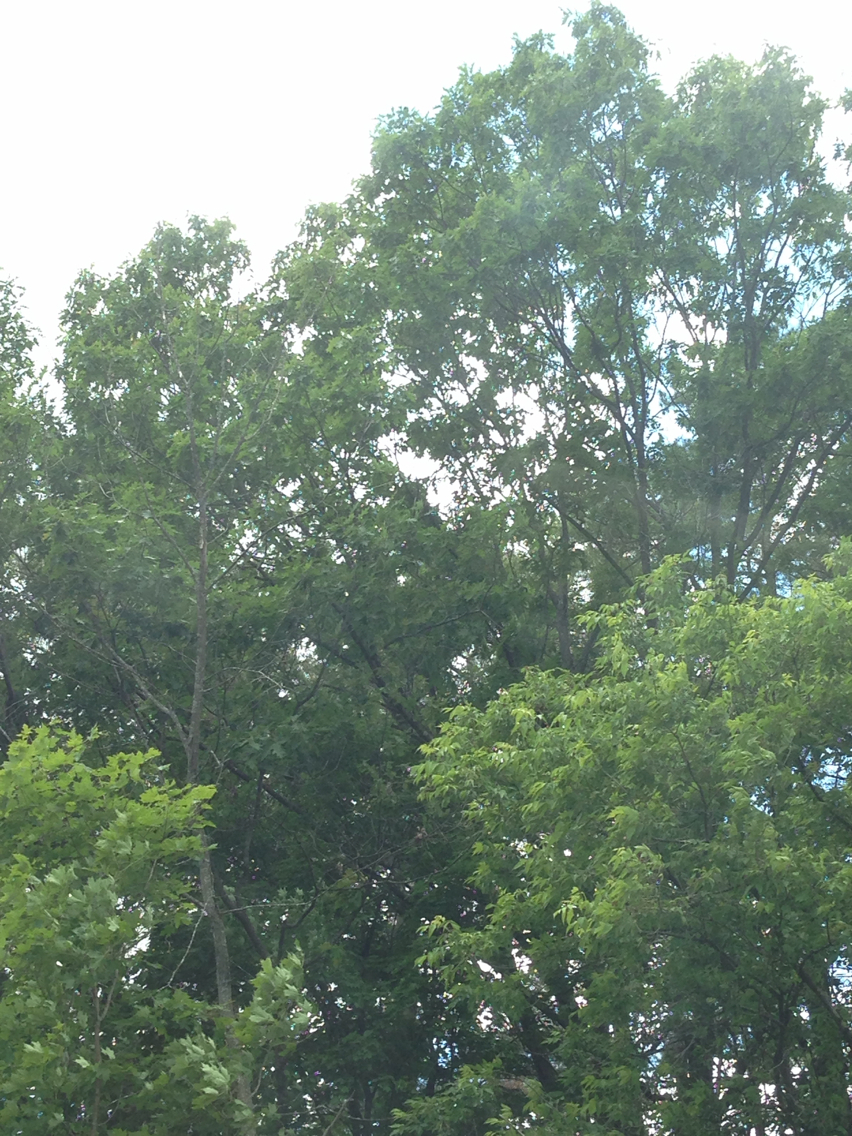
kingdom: Plantae
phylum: Tracheophyta
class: Magnoliopsida
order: Fagales
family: Fagaceae
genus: Quercus
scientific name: Quercus rubra
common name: Red oak
